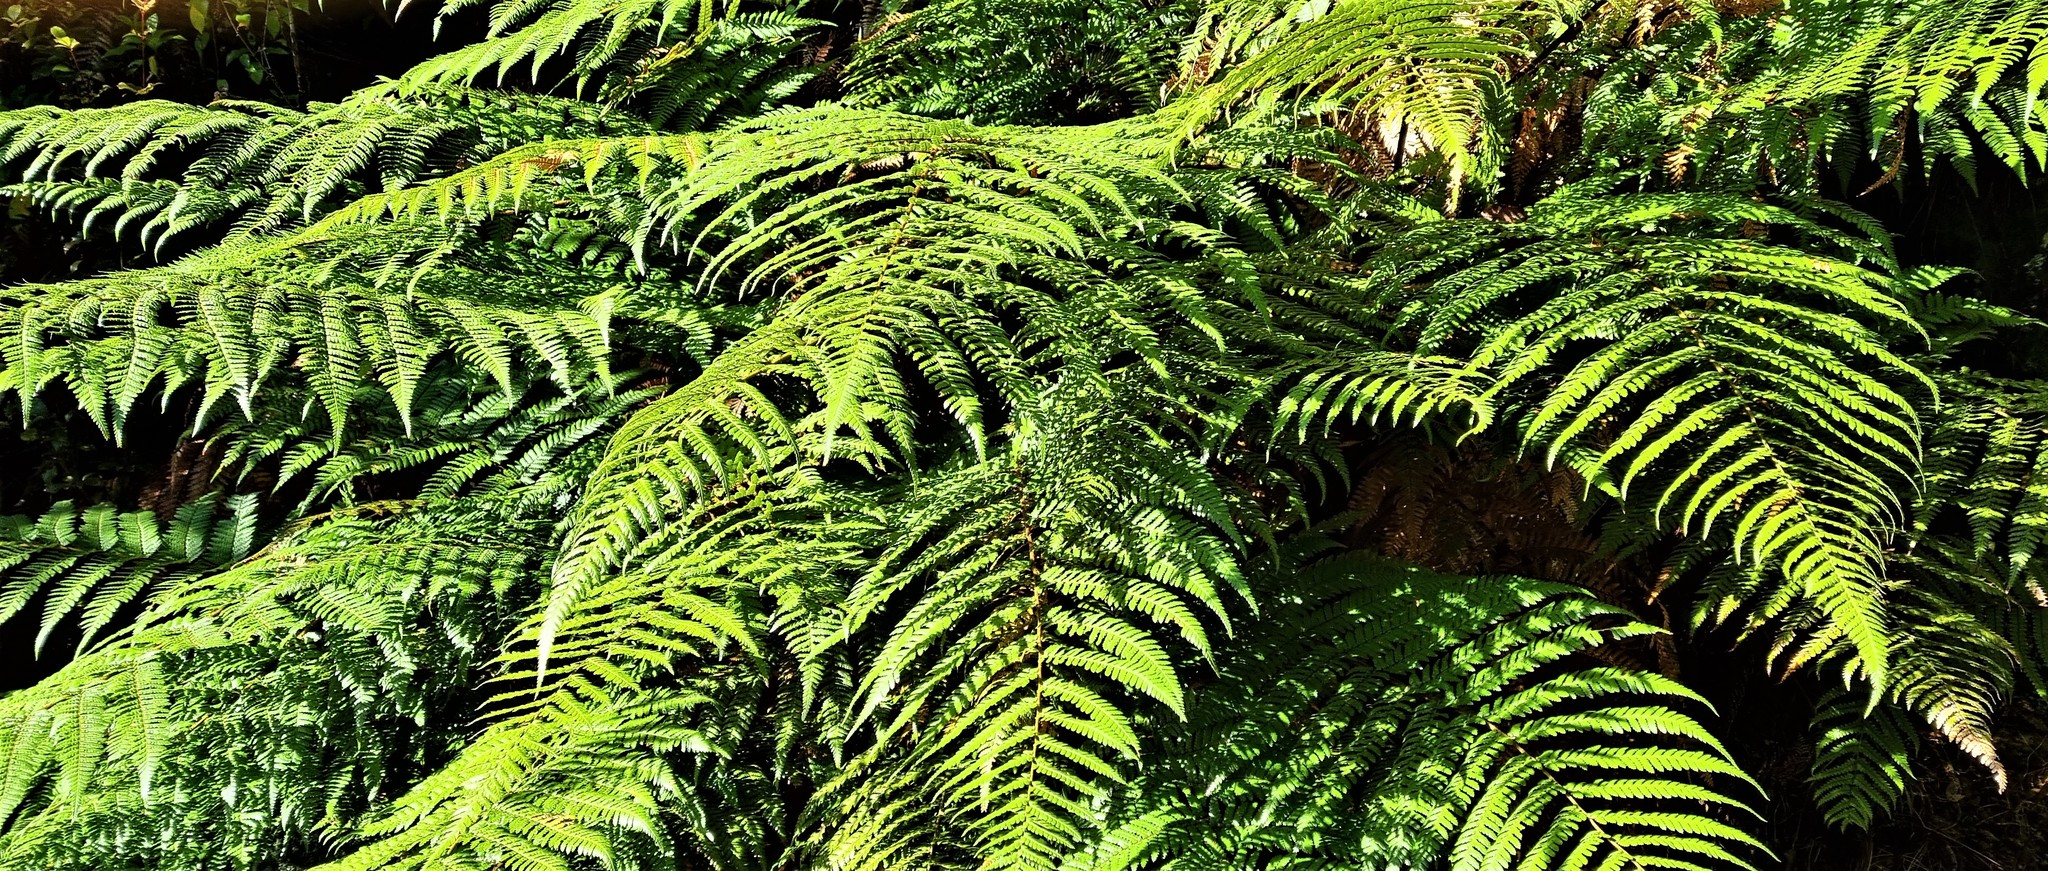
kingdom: Plantae
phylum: Tracheophyta
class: Polypodiopsida
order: Cyatheales
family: Dicksoniaceae
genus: Dicksonia
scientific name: Dicksonia squarrosa
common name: Hard treefern
